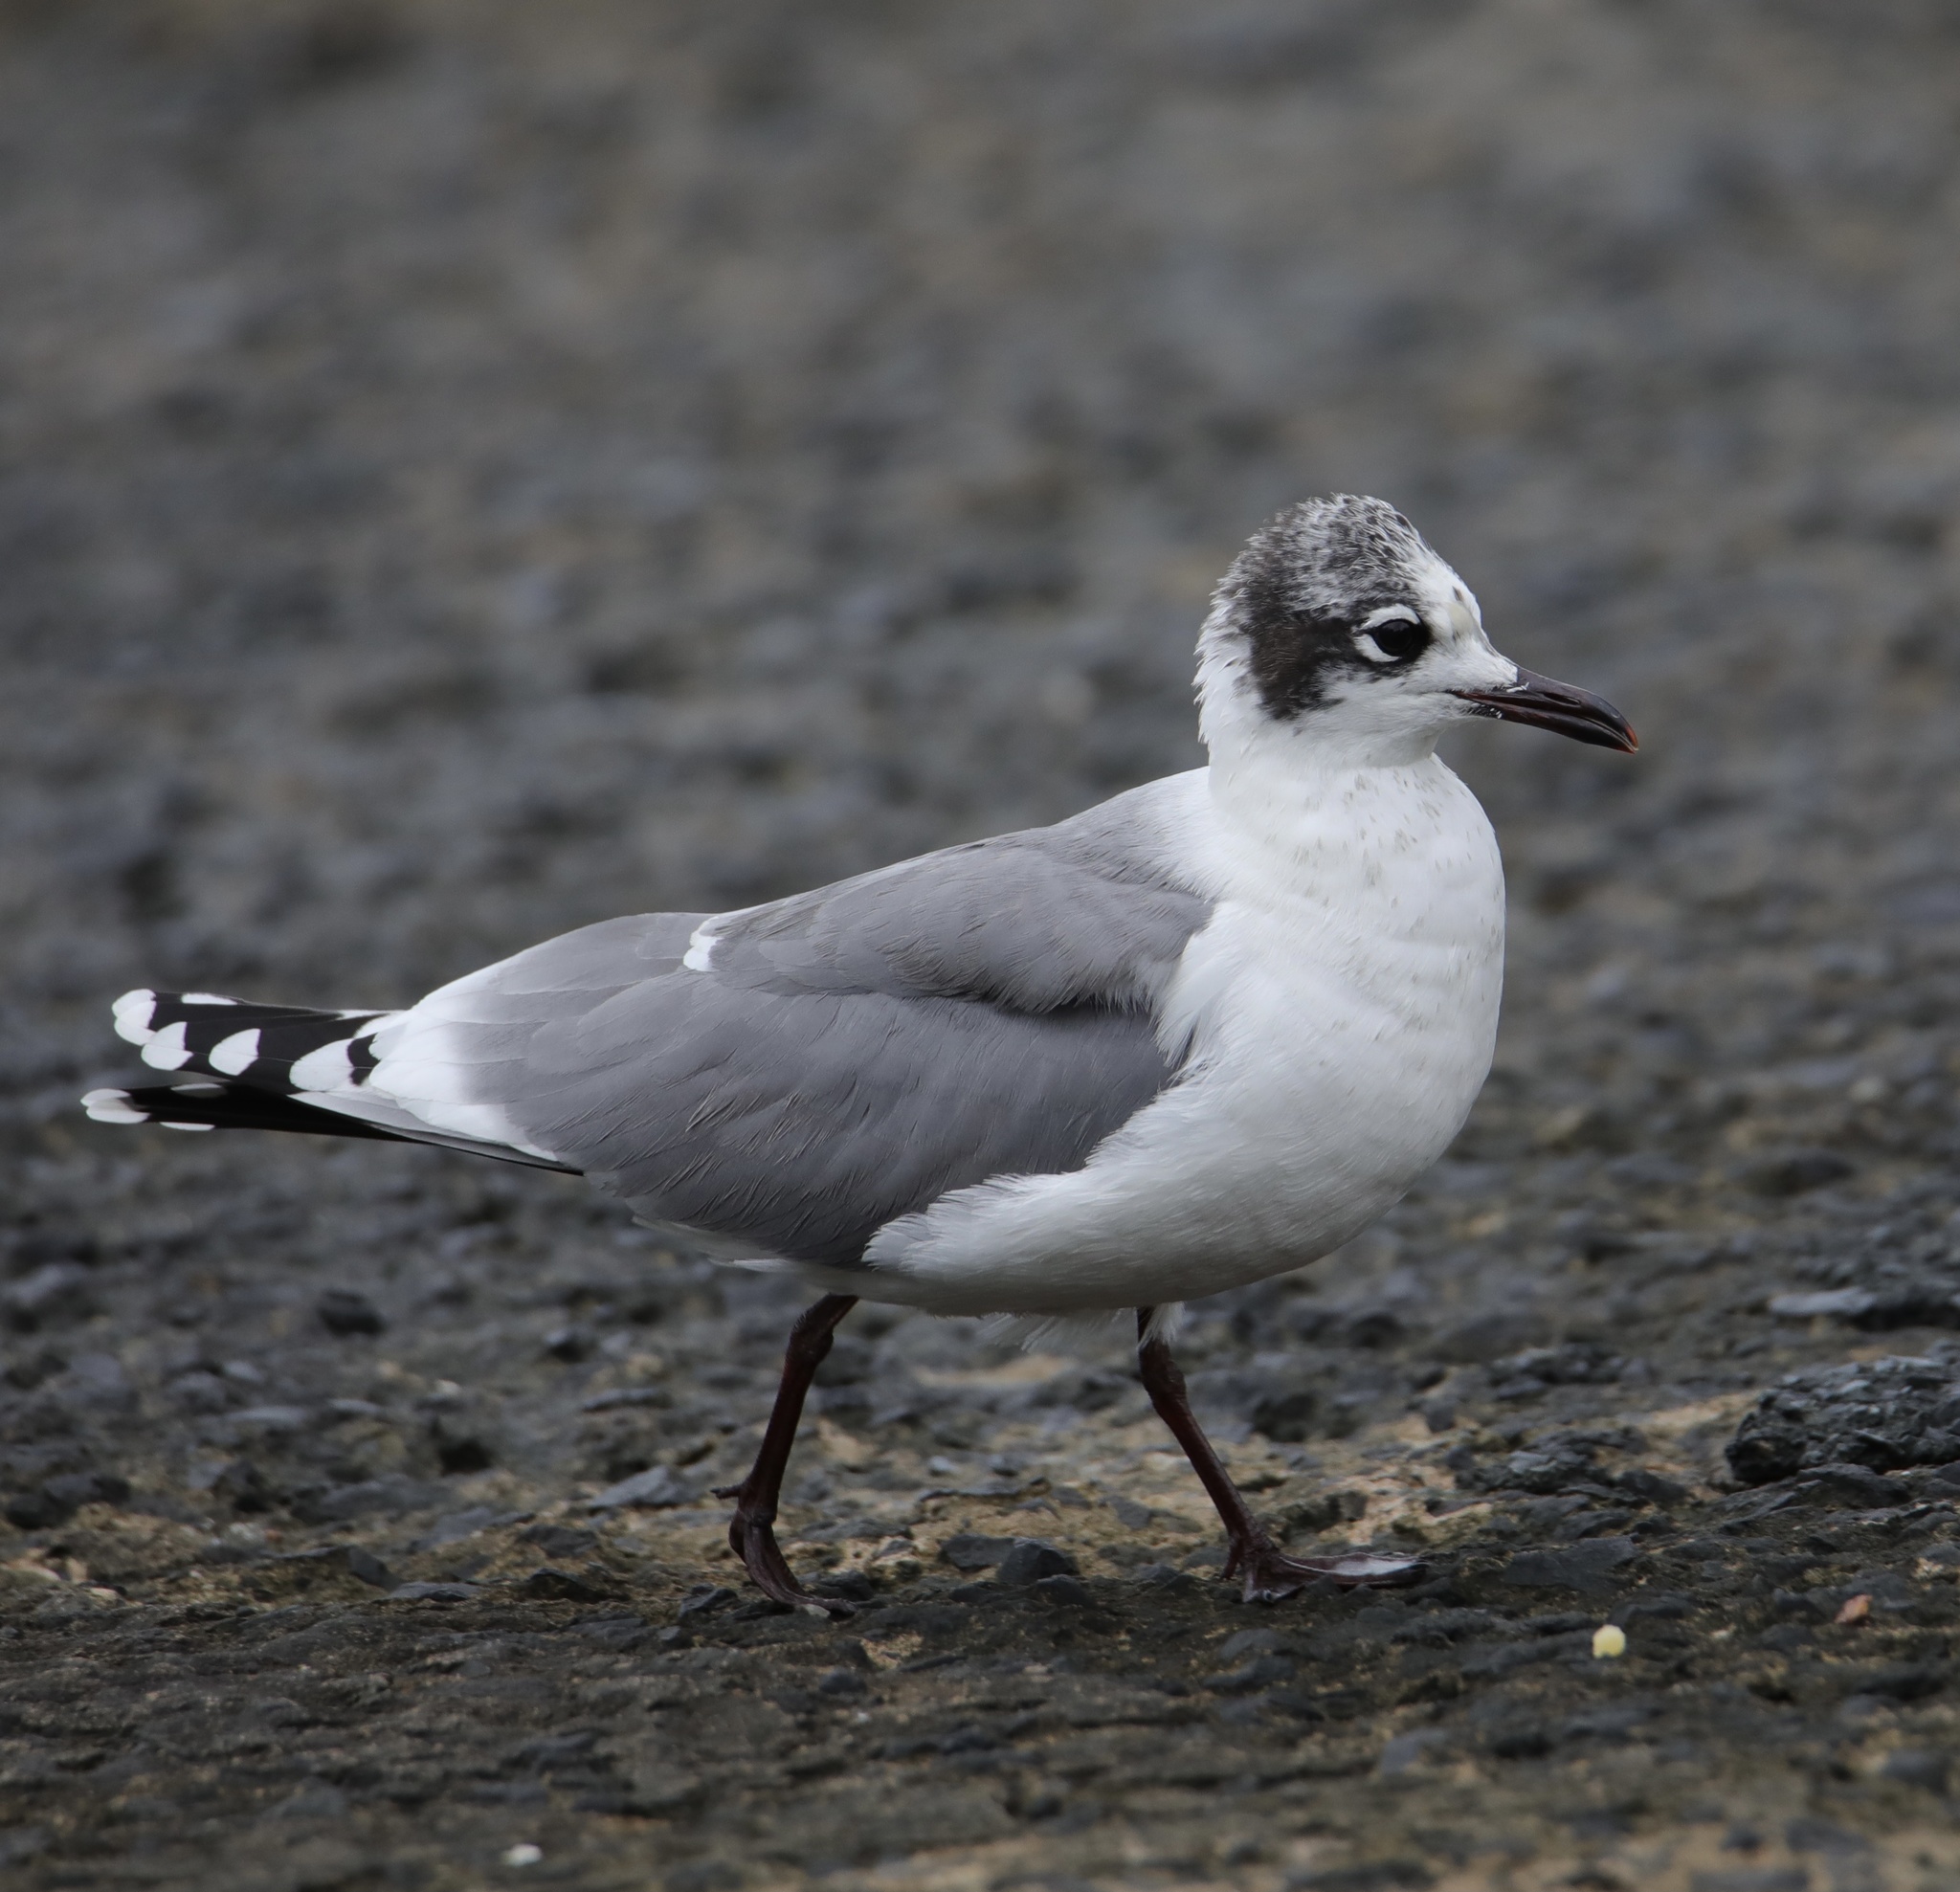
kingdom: Animalia
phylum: Chordata
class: Aves
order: Charadriiformes
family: Laridae
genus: Leucophaeus
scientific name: Leucophaeus pipixcan
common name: Franklin's gull
